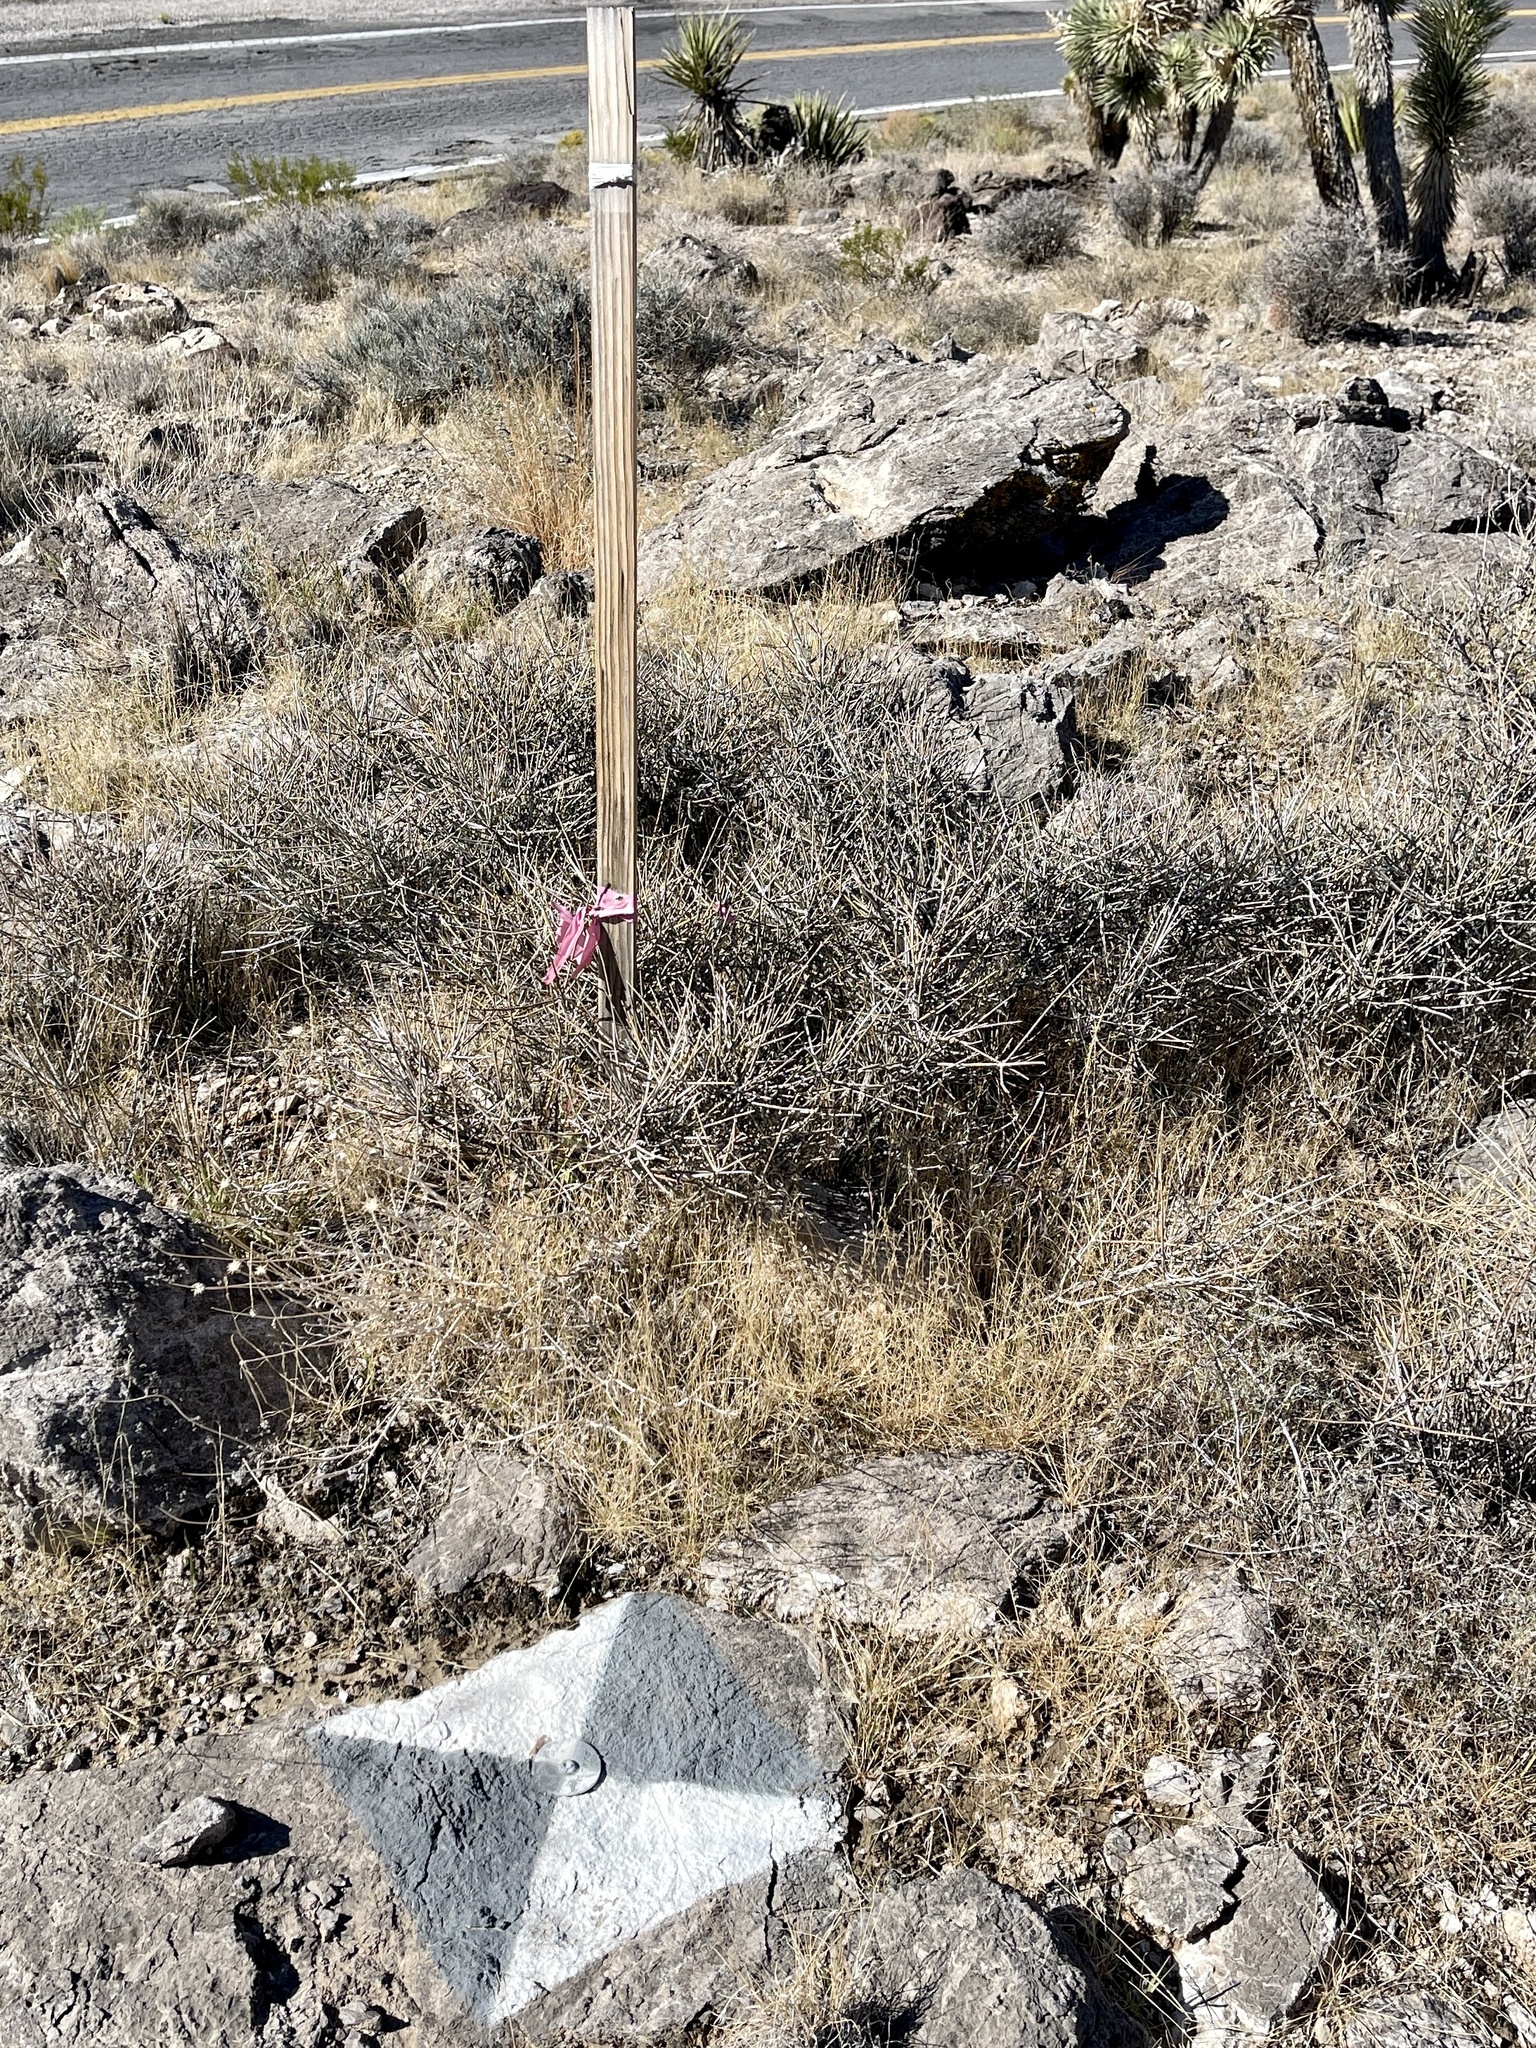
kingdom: Plantae
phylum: Tracheophyta
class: Gnetopsida
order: Ephedrales
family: Ephedraceae
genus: Ephedra
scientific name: Ephedra nevadensis
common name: Gray ephedra
